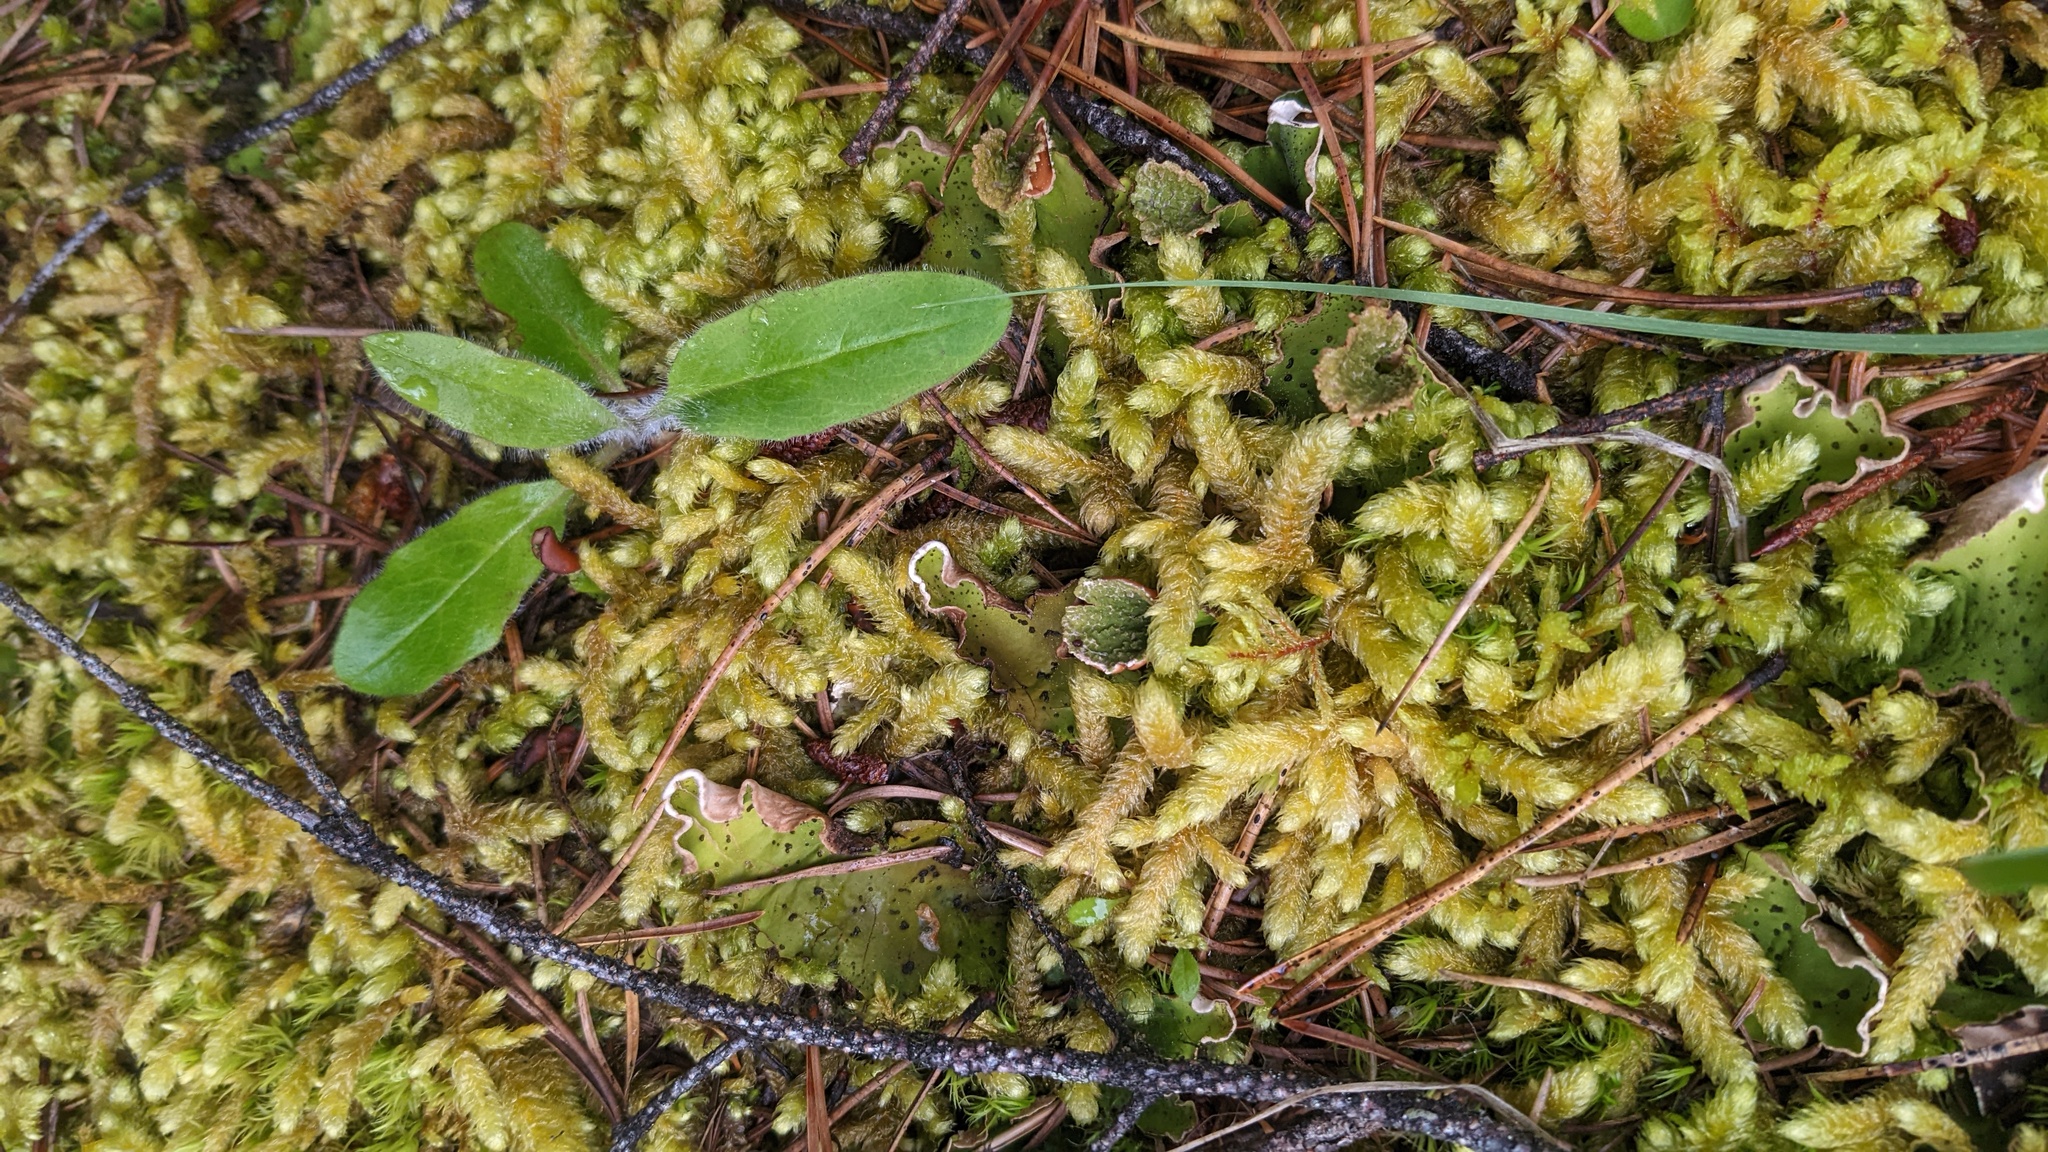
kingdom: Plantae
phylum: Bryophyta
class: Bryopsida
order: Hypnales
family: Hylocomiaceae
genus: Rhytidiopsis
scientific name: Rhytidiopsis robusta
